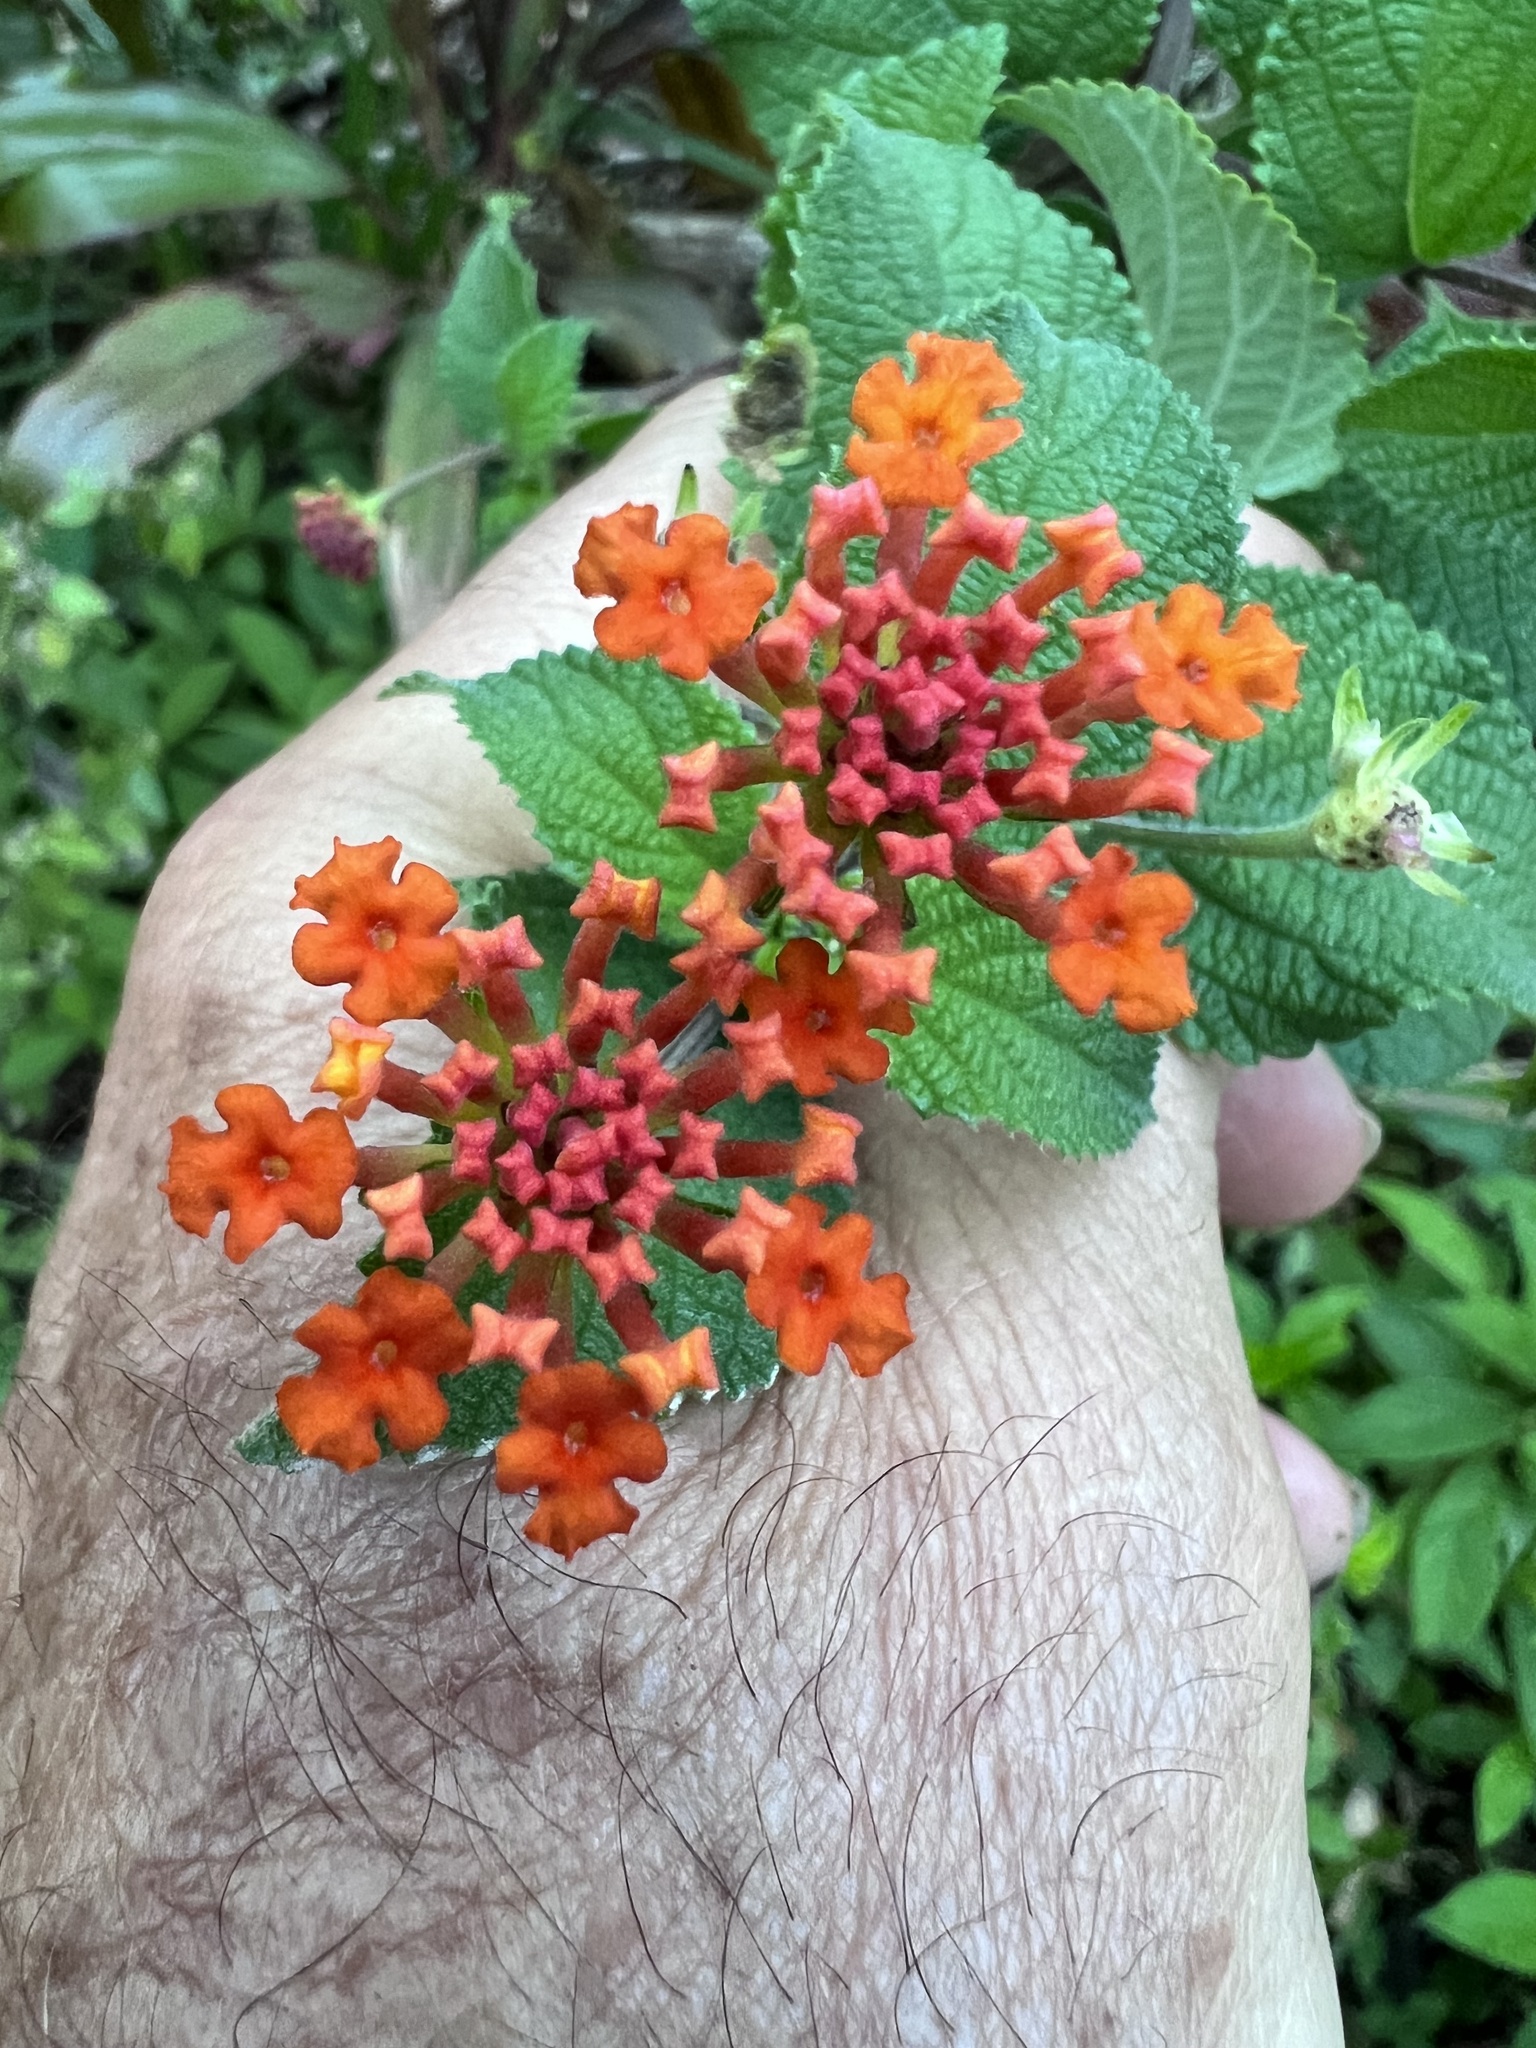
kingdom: Plantae
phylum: Tracheophyta
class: Magnoliopsida
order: Lamiales
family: Verbenaceae
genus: Lantana
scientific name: Lantana camara
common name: Lantana
